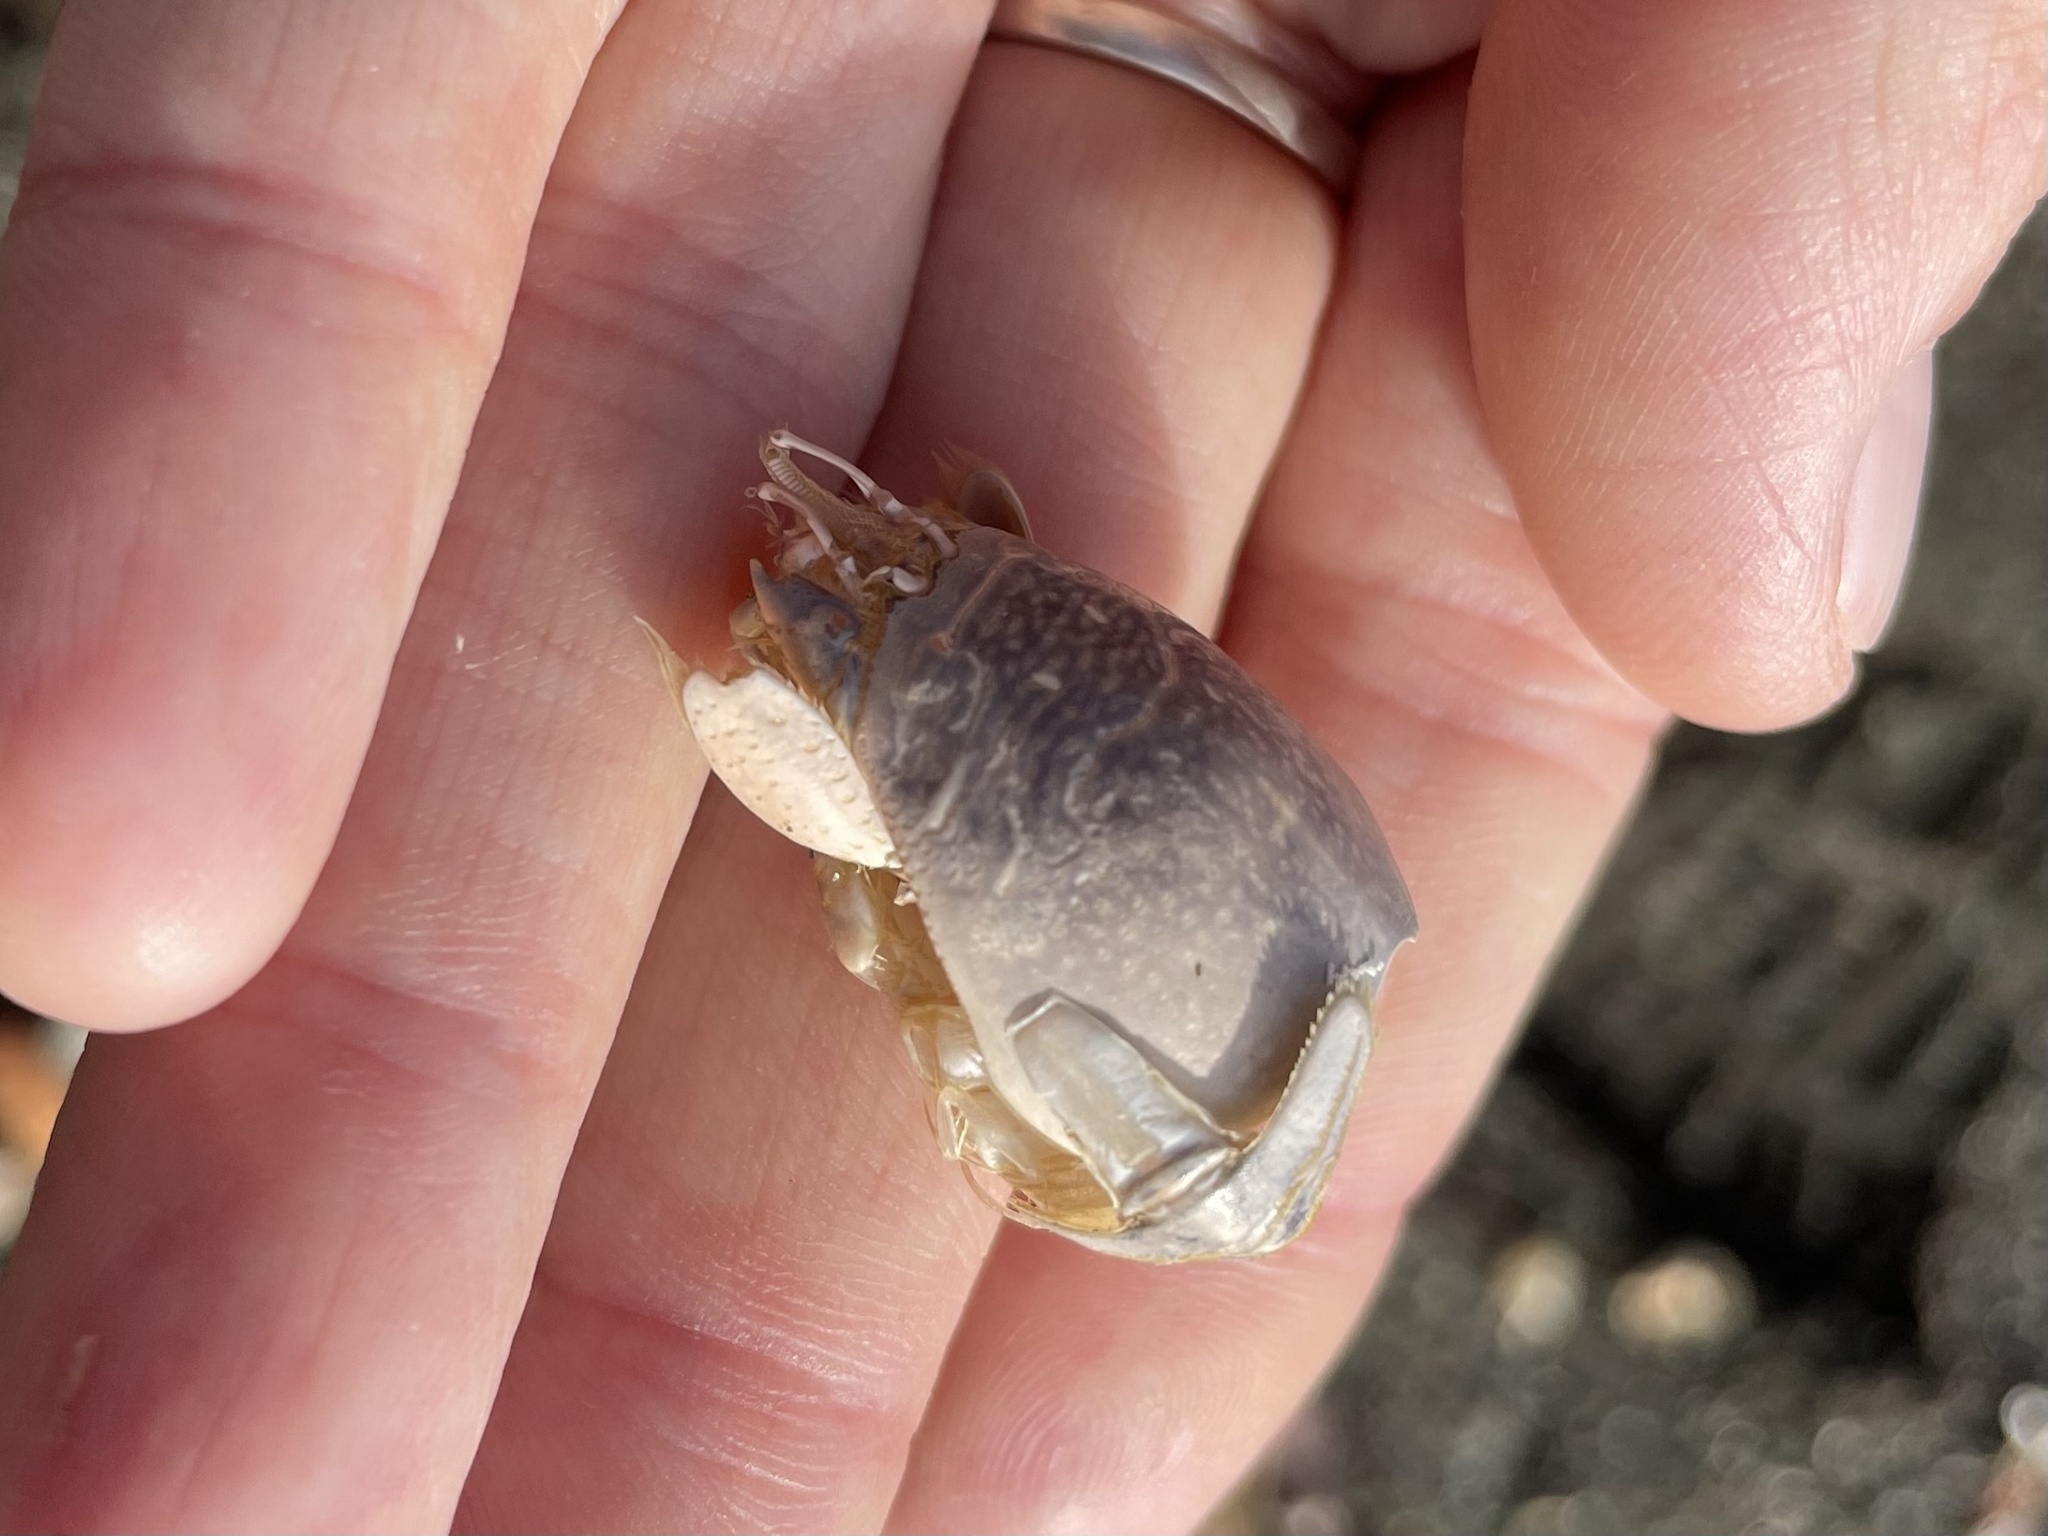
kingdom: Animalia
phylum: Arthropoda
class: Malacostraca
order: Decapoda
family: Hippidae
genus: Emerita
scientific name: Emerita analoga
